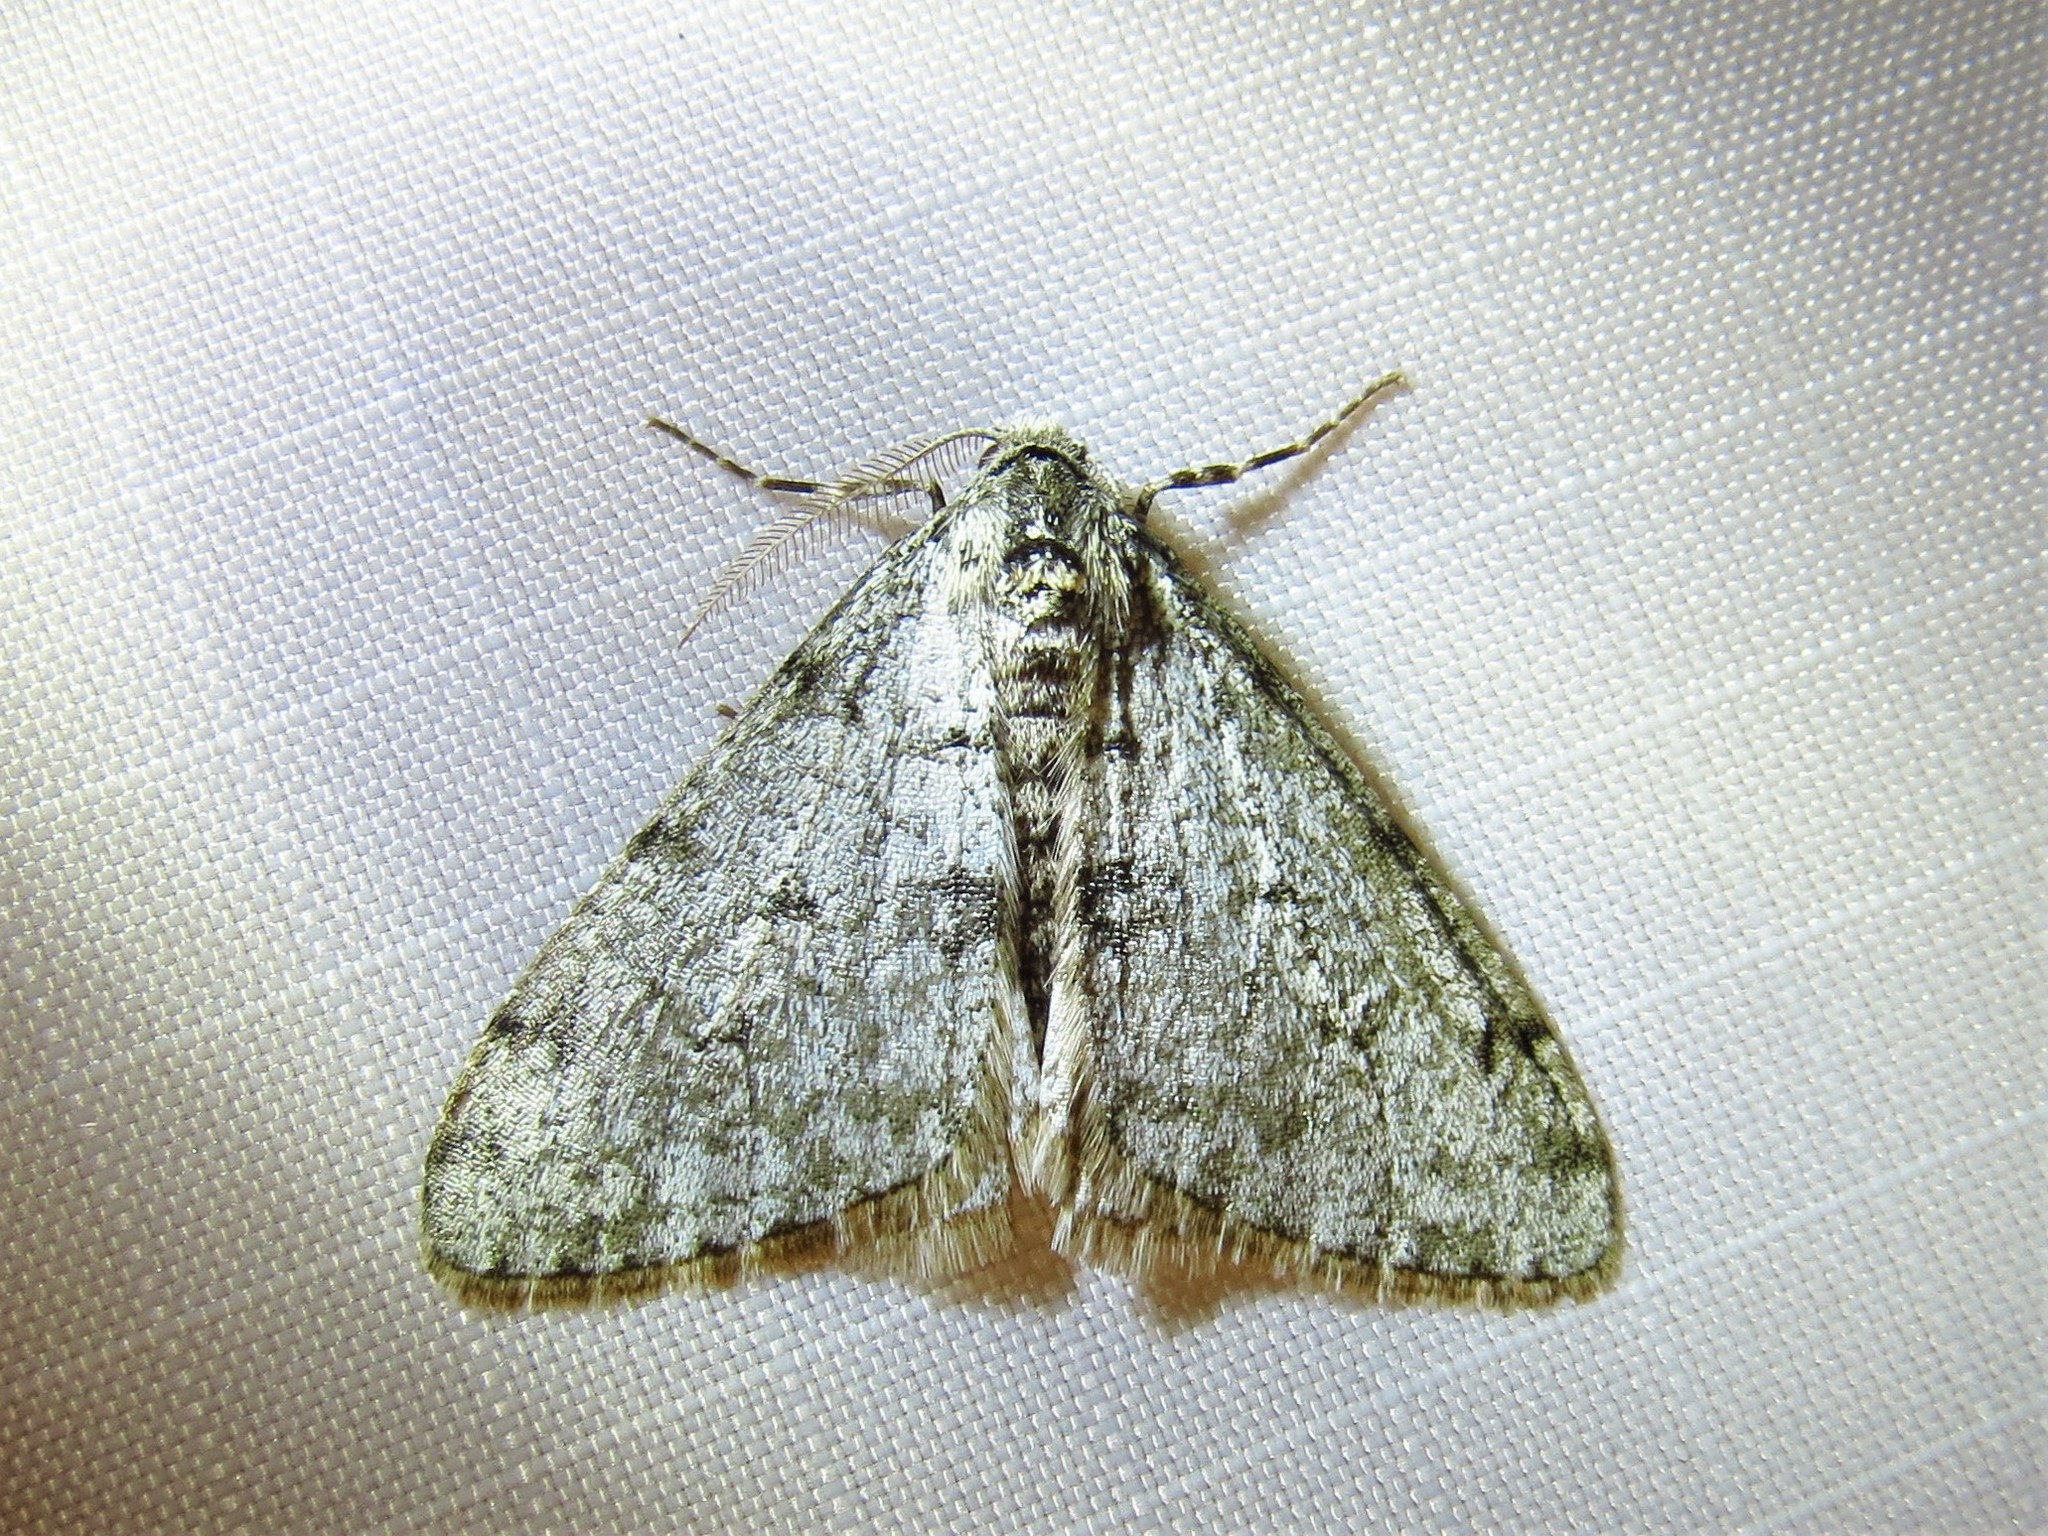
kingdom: Animalia
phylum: Arthropoda
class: Insecta
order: Lepidoptera
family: Geometridae
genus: Phigalia
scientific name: Phigalia strigataria
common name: Small phigalia
